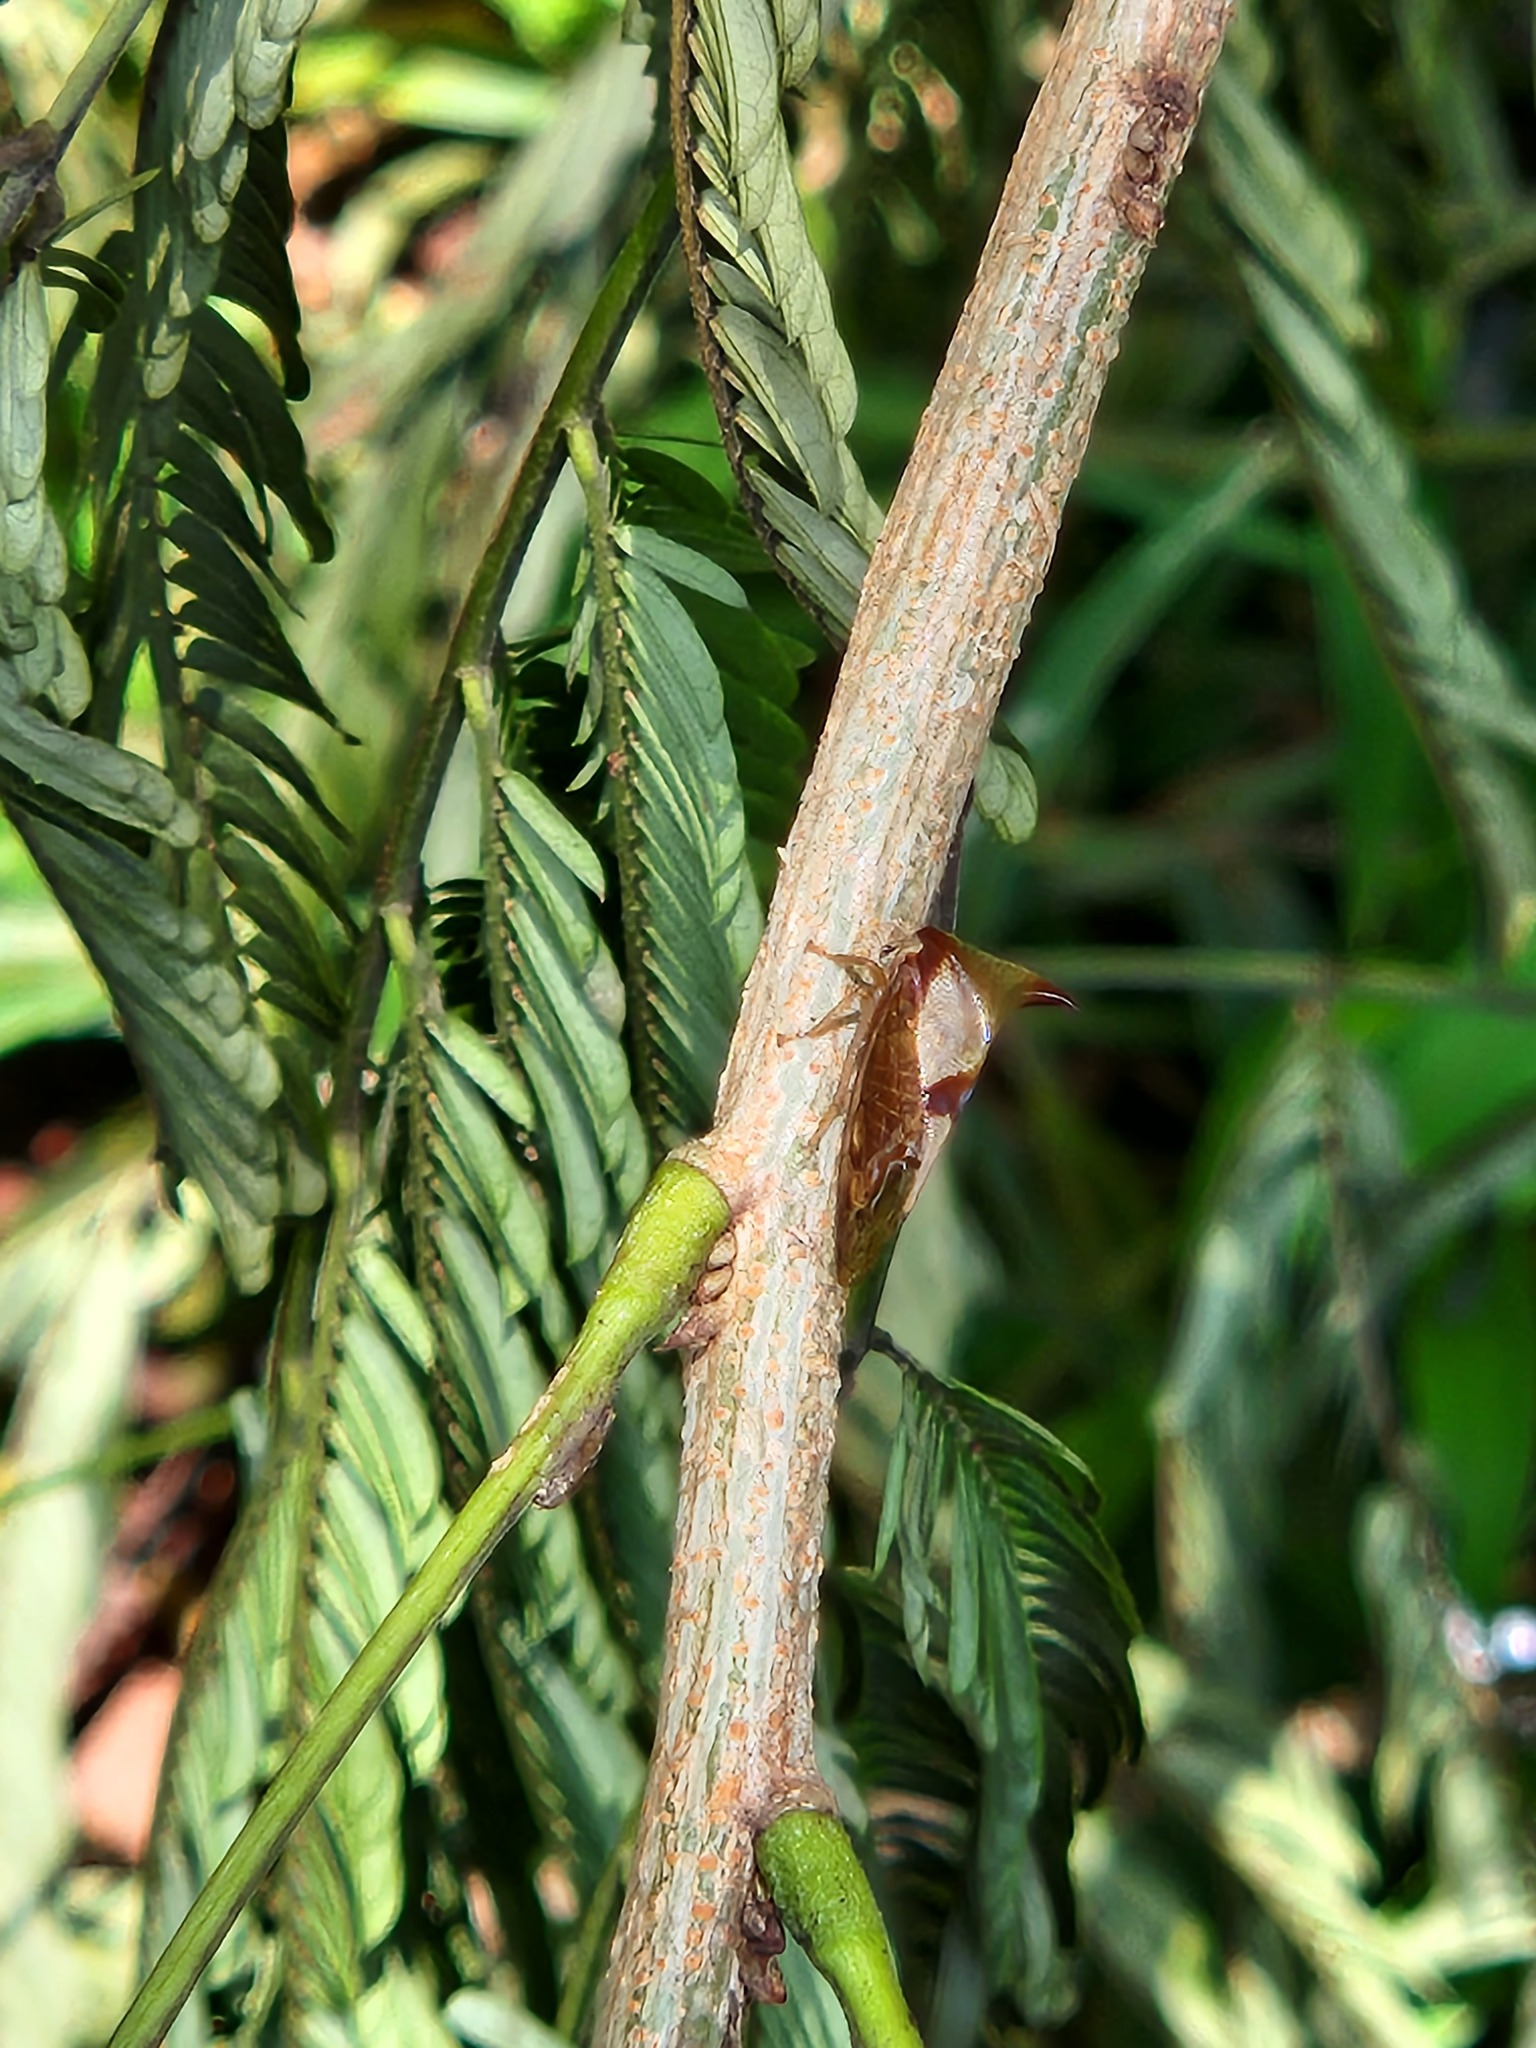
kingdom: Animalia
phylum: Arthropoda
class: Insecta
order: Hemiptera
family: Membracidae
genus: Ceresa
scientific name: Ceresa paulistana
